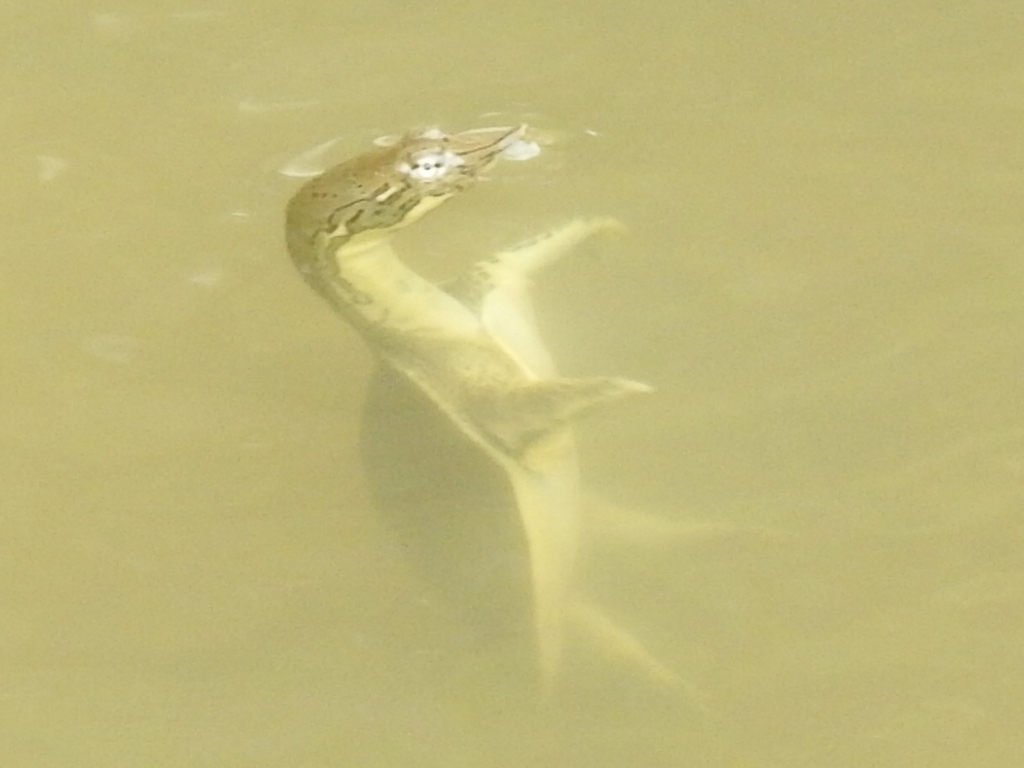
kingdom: Animalia
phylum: Chordata
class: Testudines
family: Trionychidae
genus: Apalone
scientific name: Apalone spinifera
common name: Spiny softshell turtle
